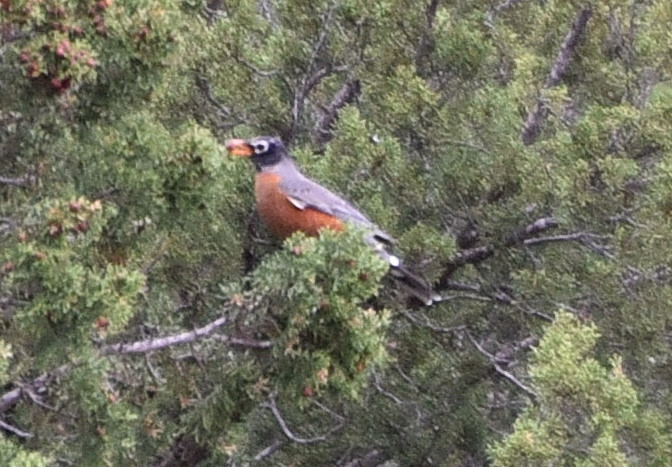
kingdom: Animalia
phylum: Chordata
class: Aves
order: Passeriformes
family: Turdidae
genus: Turdus
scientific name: Turdus migratorius
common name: American robin
